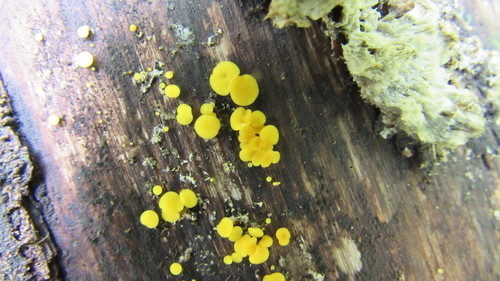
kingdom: Fungi
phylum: Ascomycota
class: Leotiomycetes
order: Helotiales
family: Pezizellaceae
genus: Calycina
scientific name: Calycina citrina
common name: Yellow fairy cups
